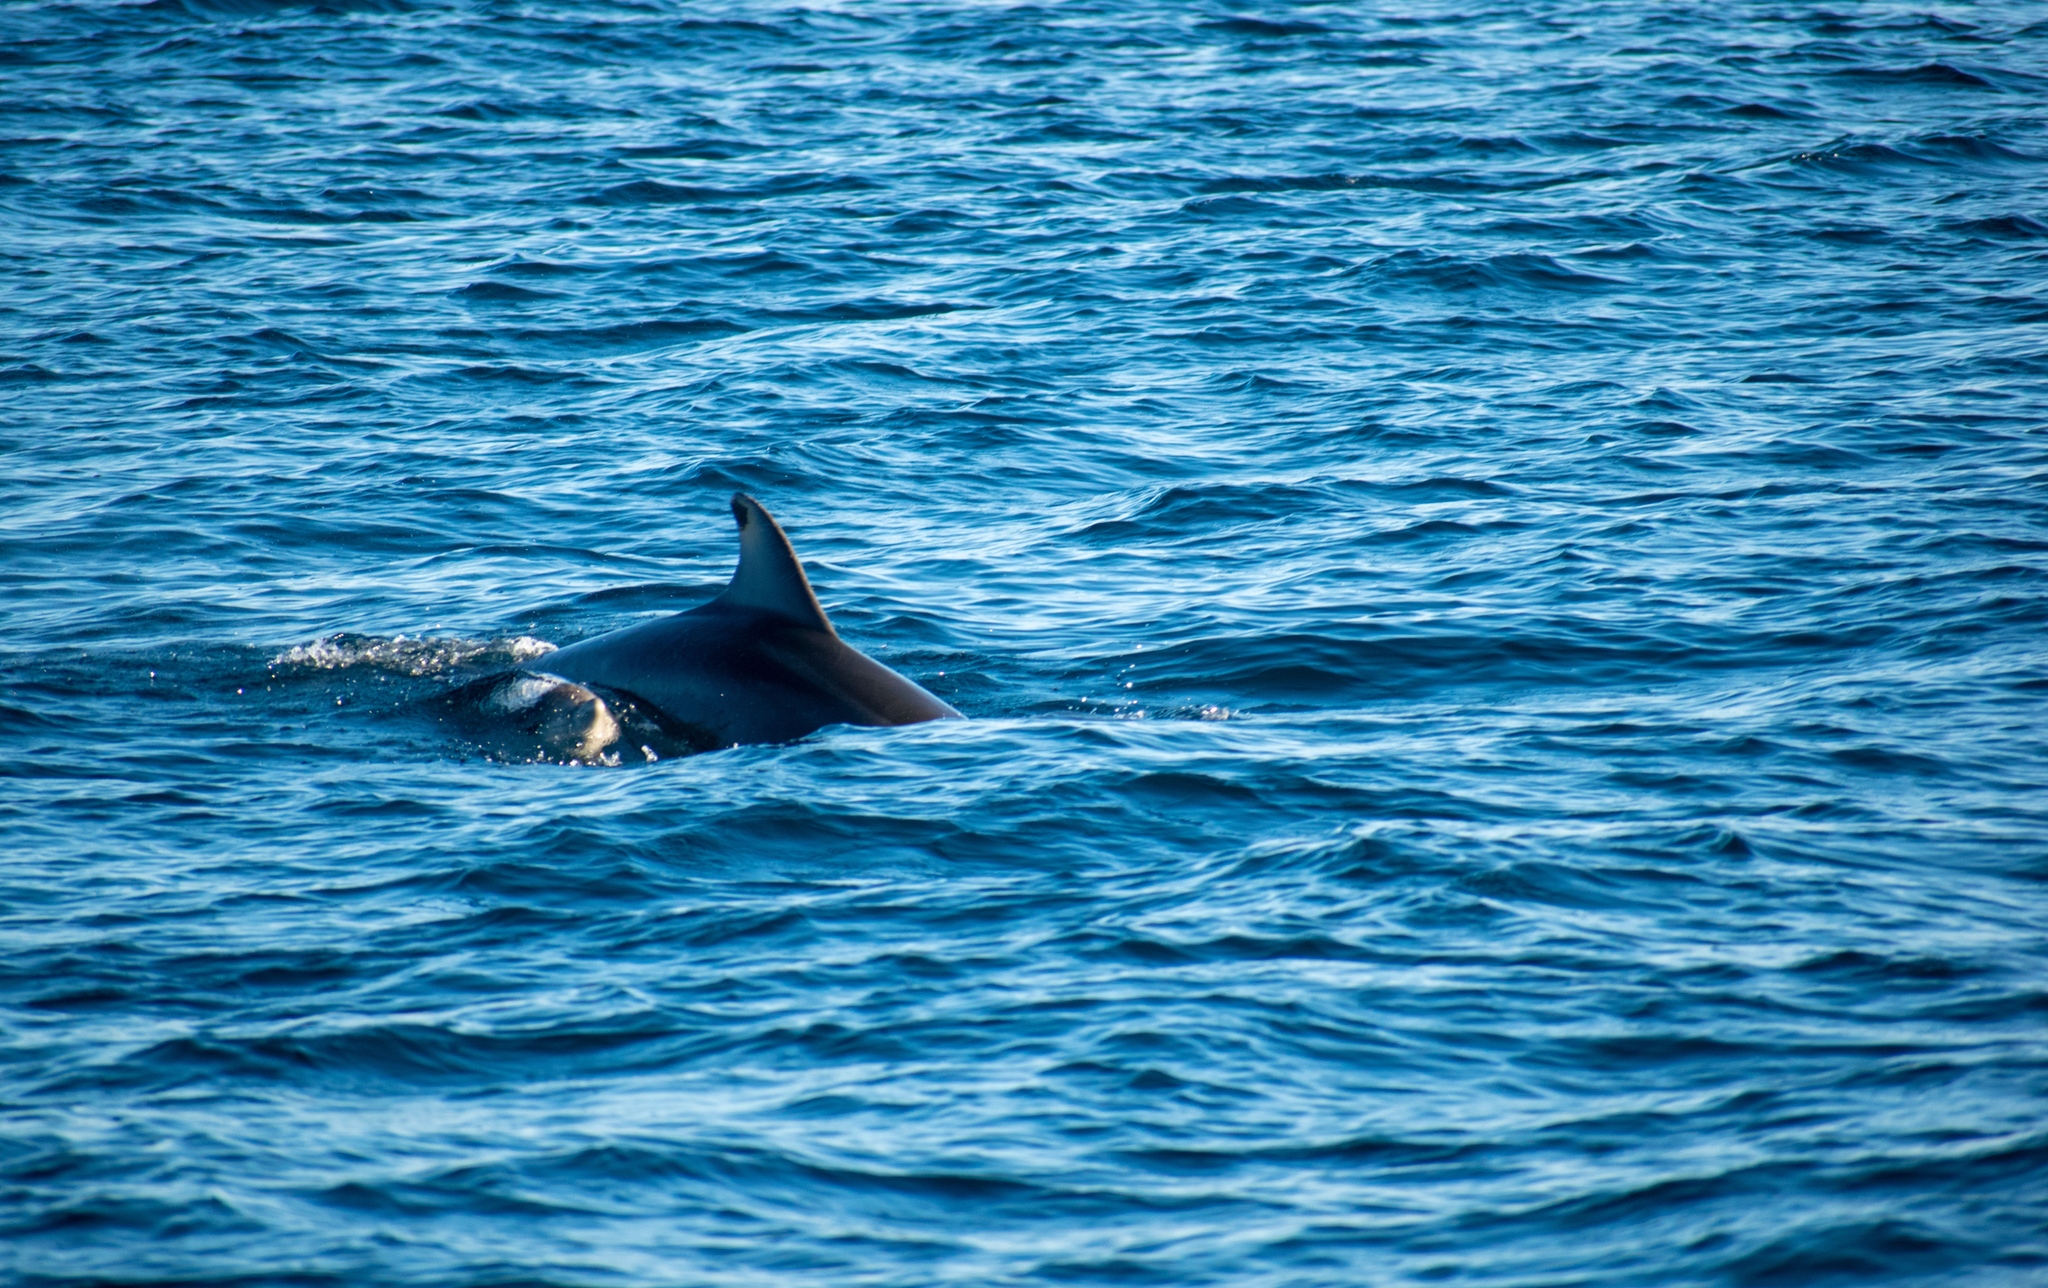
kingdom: Animalia
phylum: Chordata
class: Mammalia
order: Cetacea
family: Delphinidae
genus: Tursiops
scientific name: Tursiops truncatus
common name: Bottlenose dolphin
